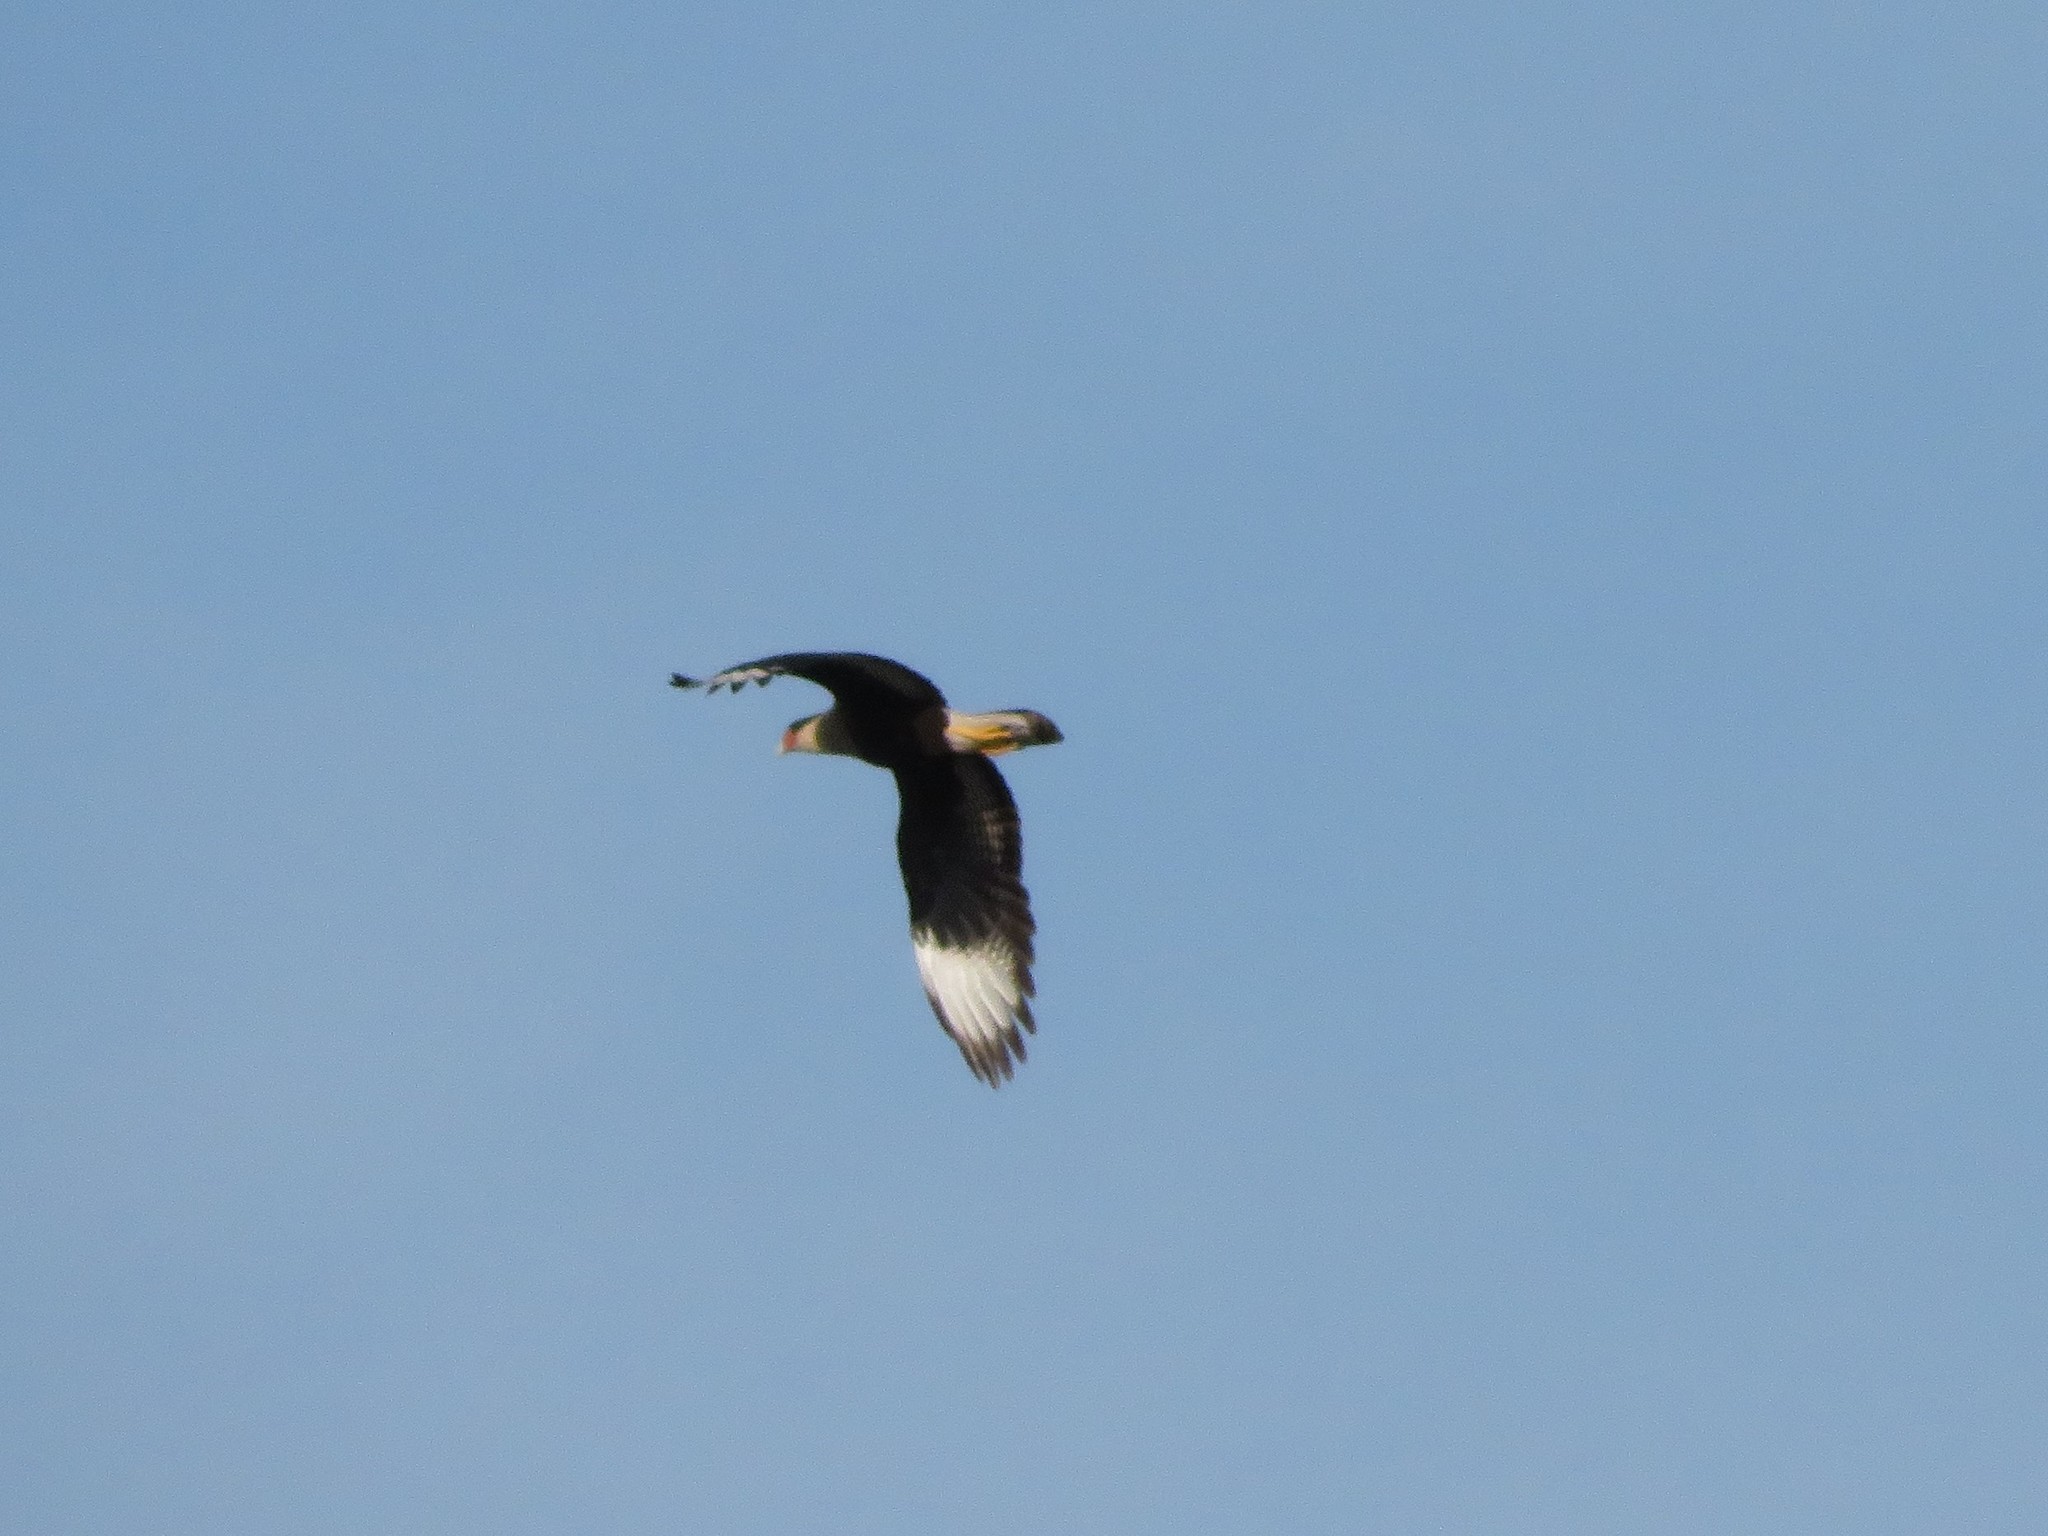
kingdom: Animalia
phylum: Chordata
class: Aves
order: Falconiformes
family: Falconidae
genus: Caracara
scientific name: Caracara plancus
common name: Southern caracara
